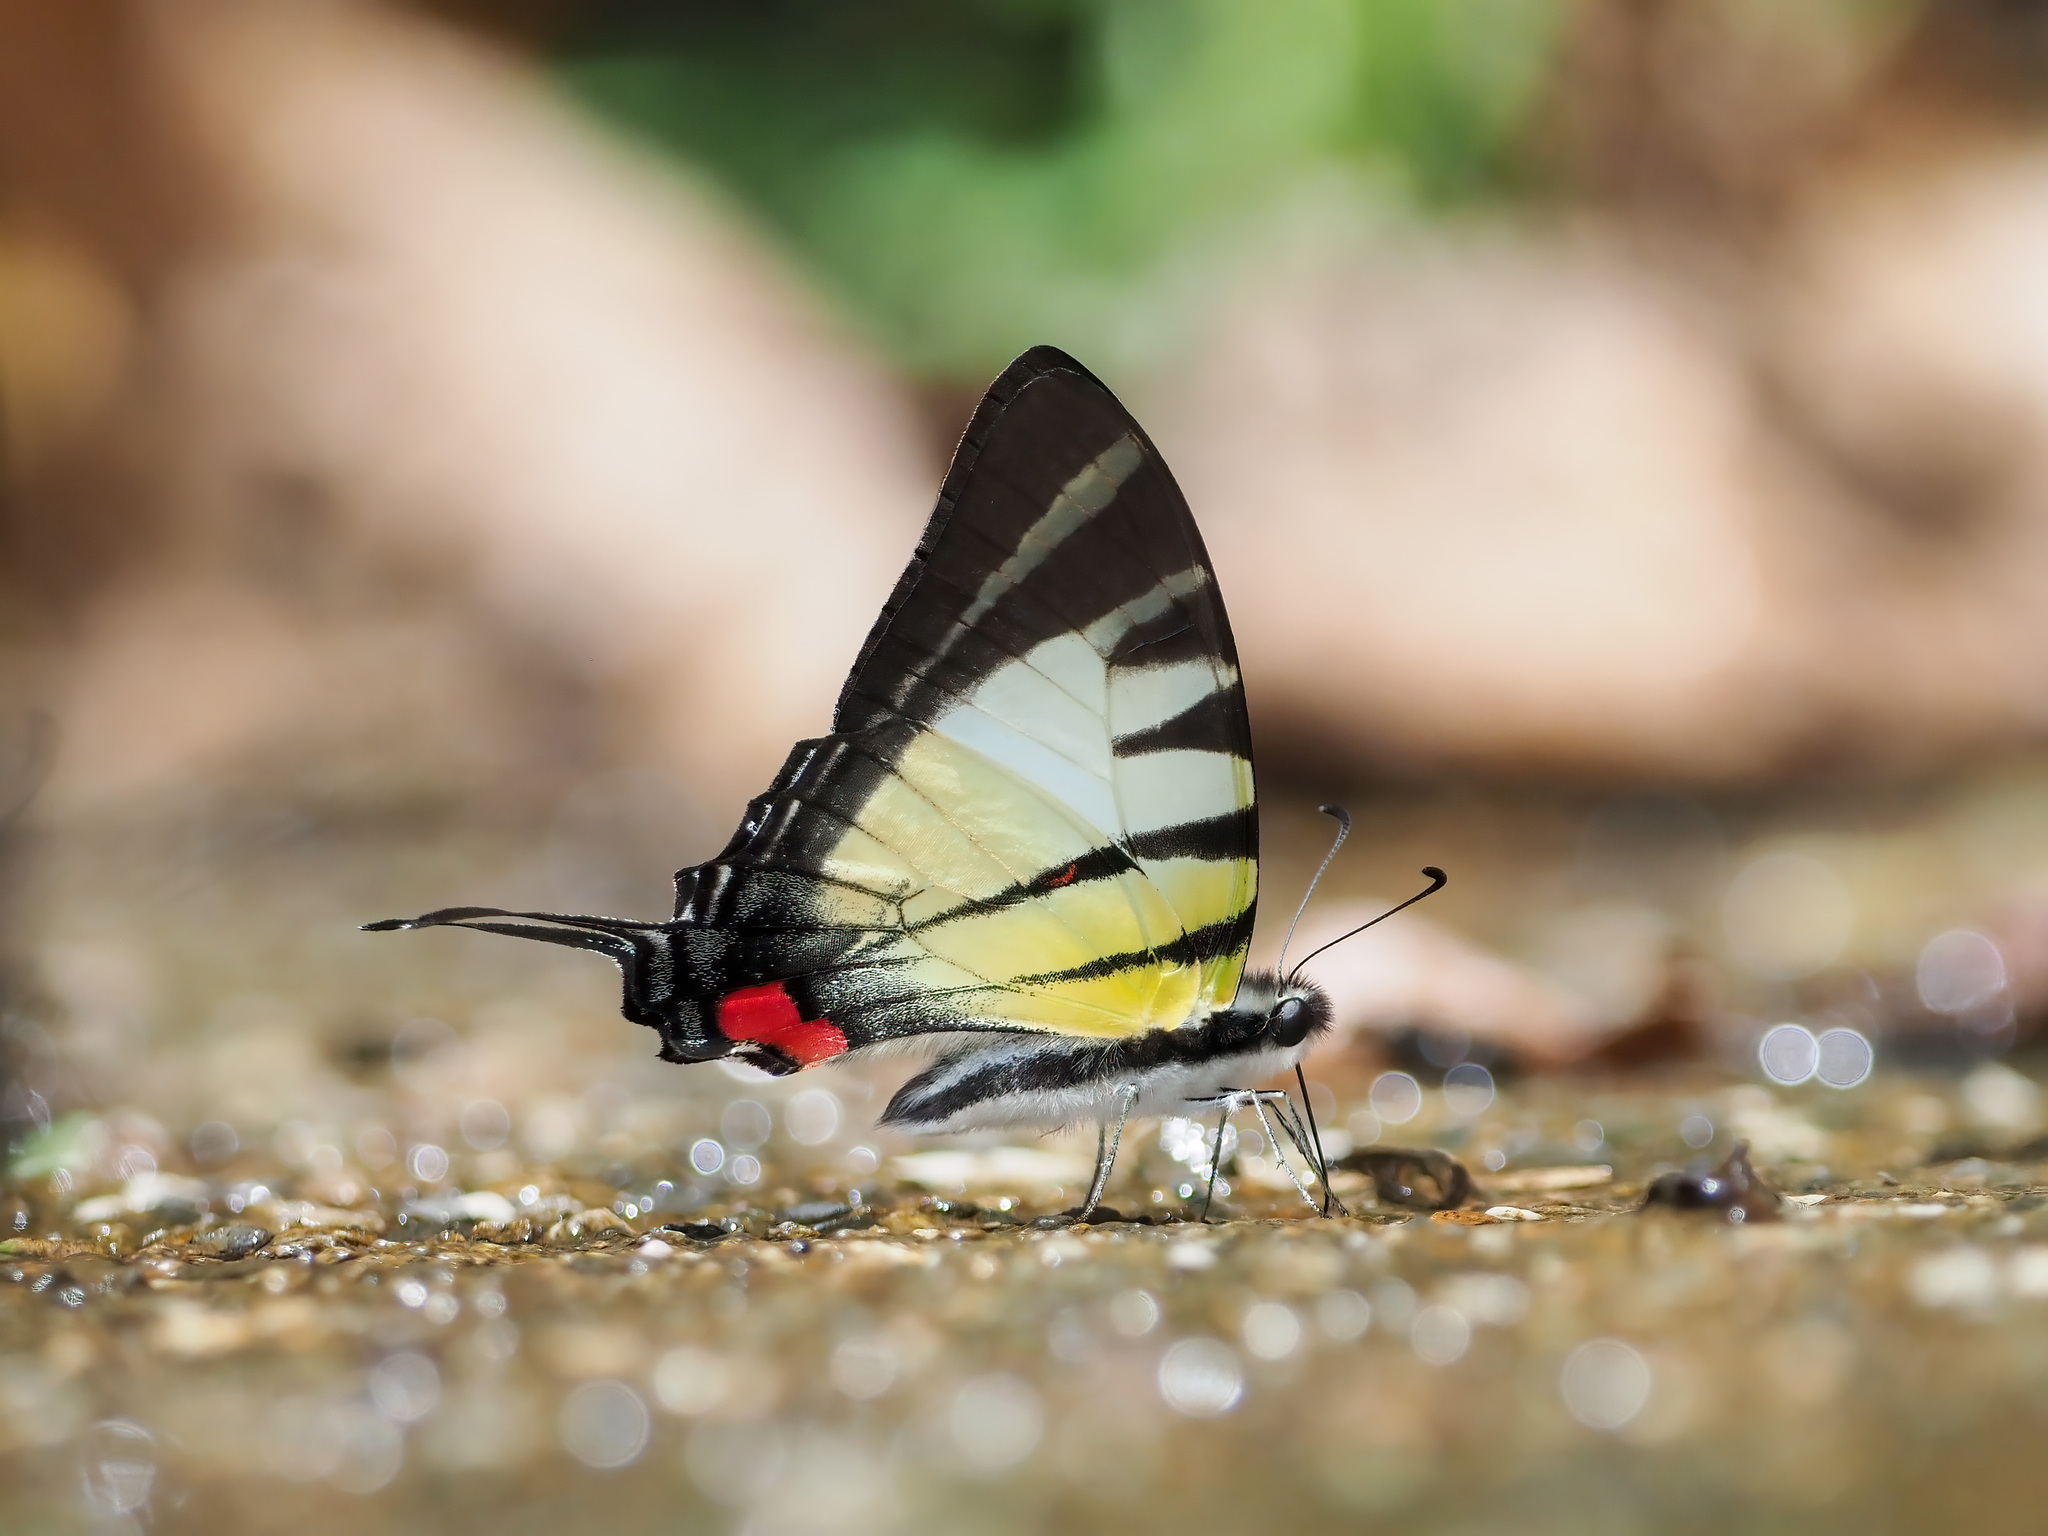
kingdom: Animalia
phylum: Arthropoda
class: Insecta
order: Lepidoptera
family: Papilionidae
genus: Graphium
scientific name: Graphium stratiotes
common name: Kinabalu swordtail
